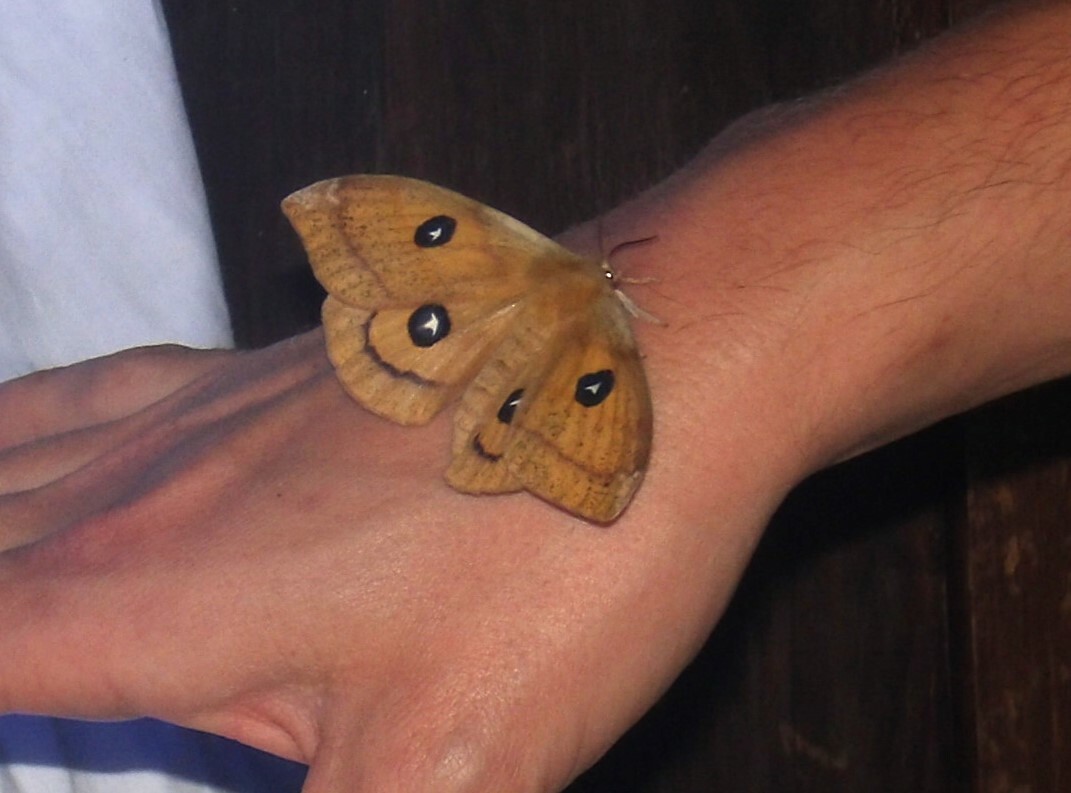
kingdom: Animalia
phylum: Arthropoda
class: Insecta
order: Lepidoptera
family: Saturniidae
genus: Aglia
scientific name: Aglia tau
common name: Tau emperor
